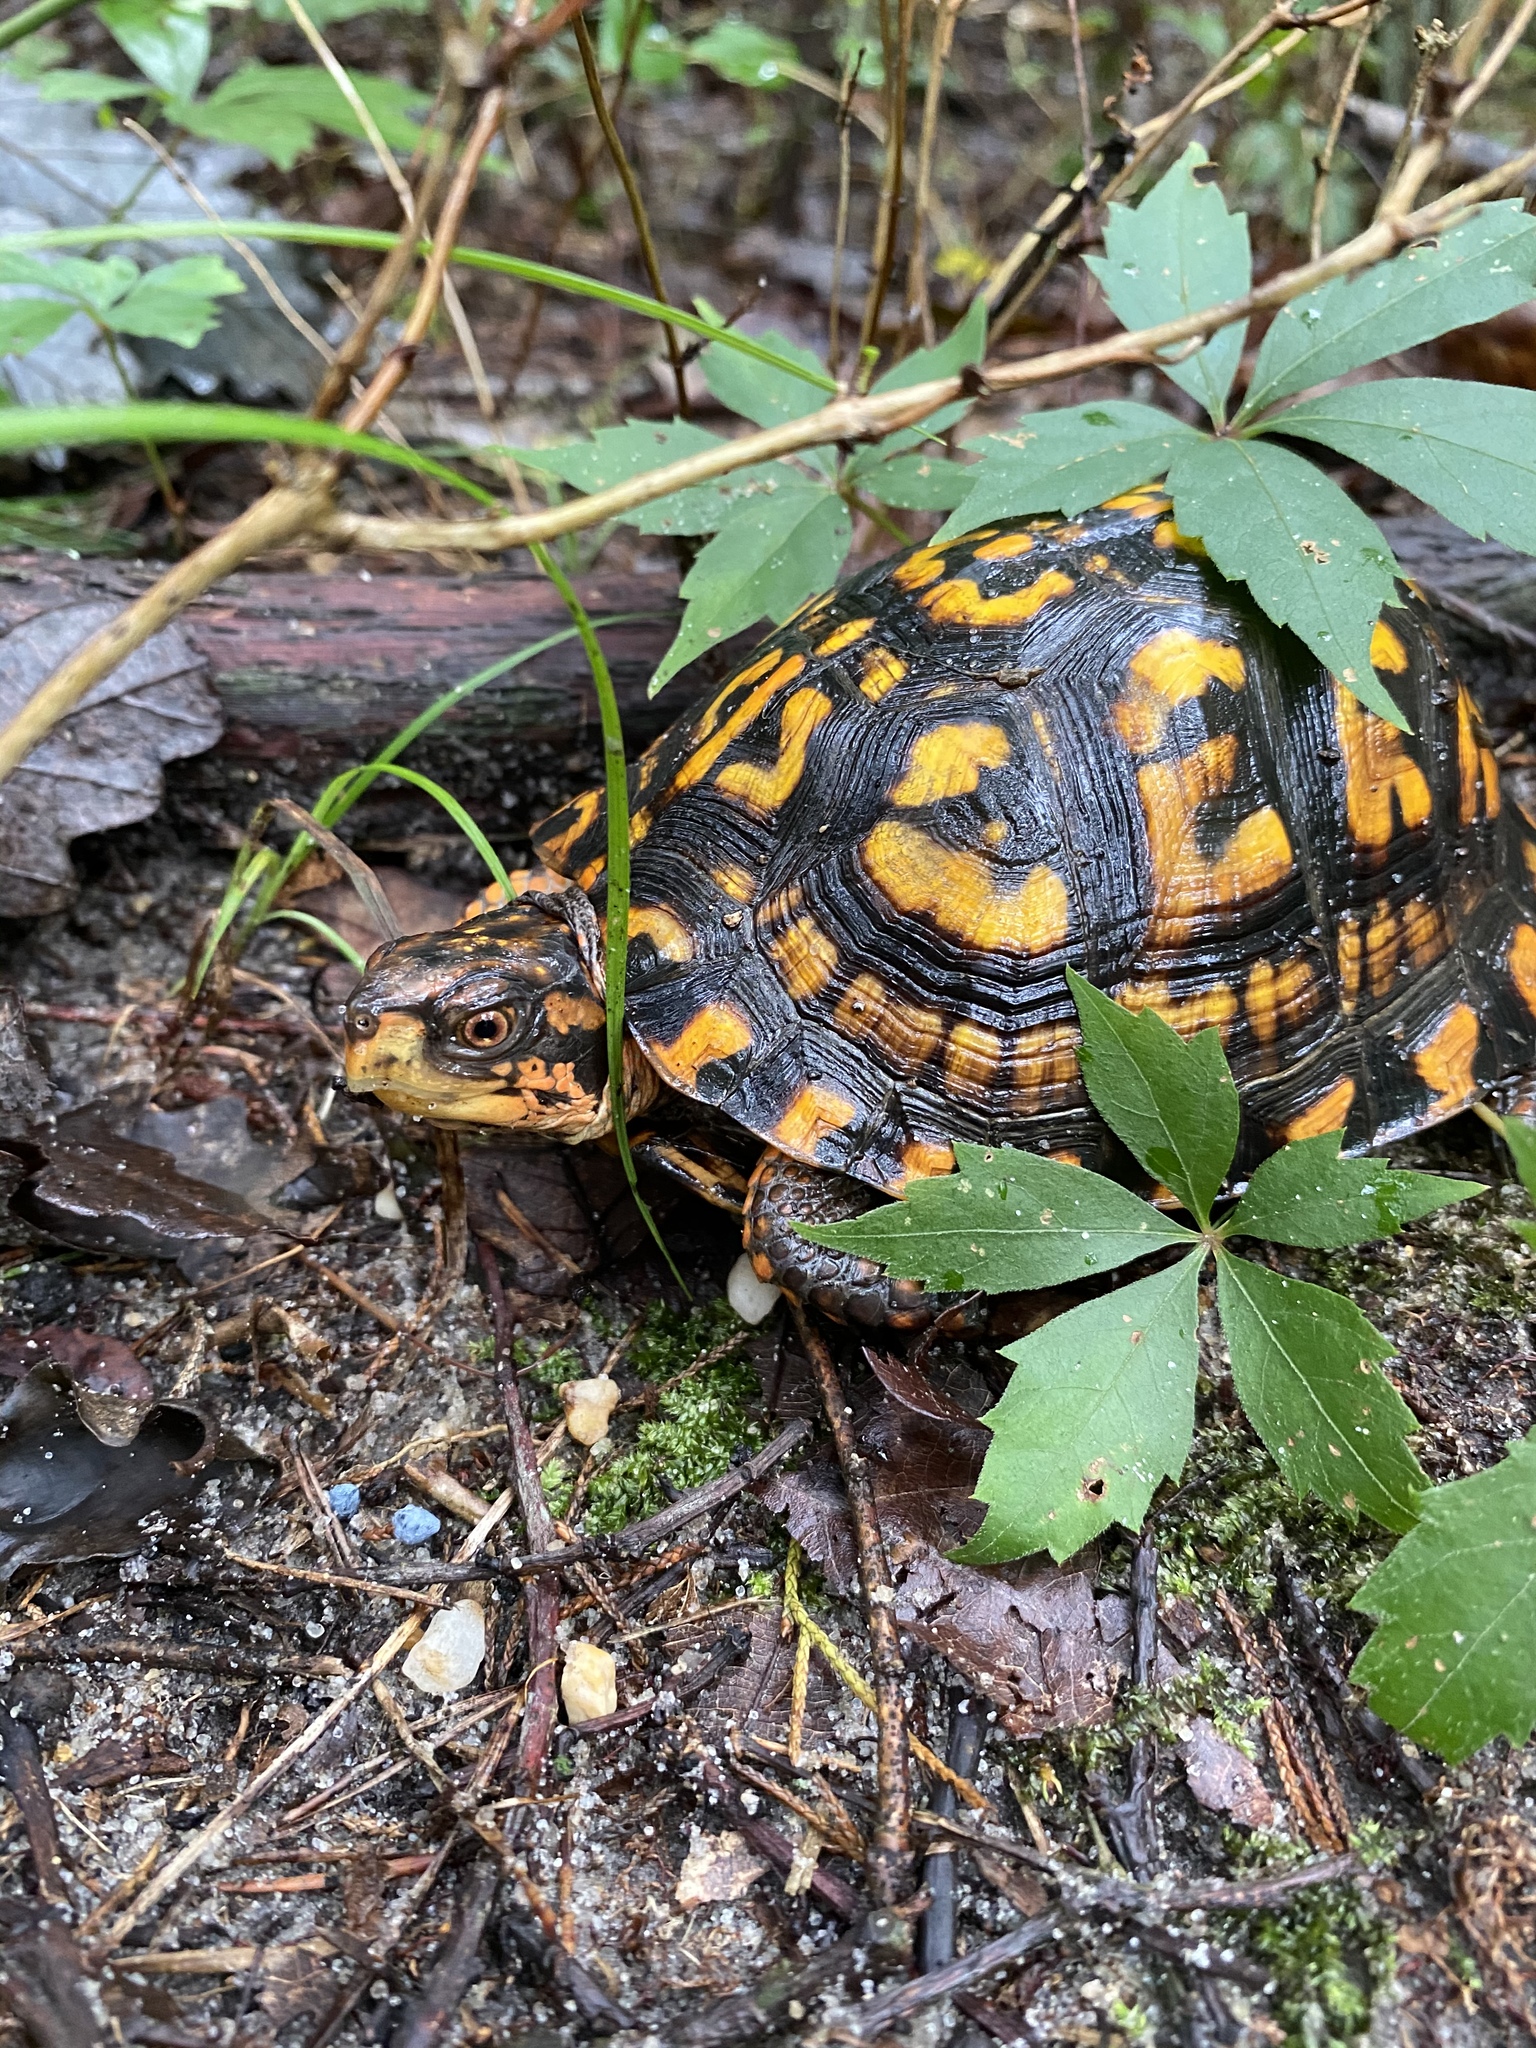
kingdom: Animalia
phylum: Chordata
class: Testudines
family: Emydidae
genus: Terrapene
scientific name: Terrapene carolina
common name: Common box turtle
